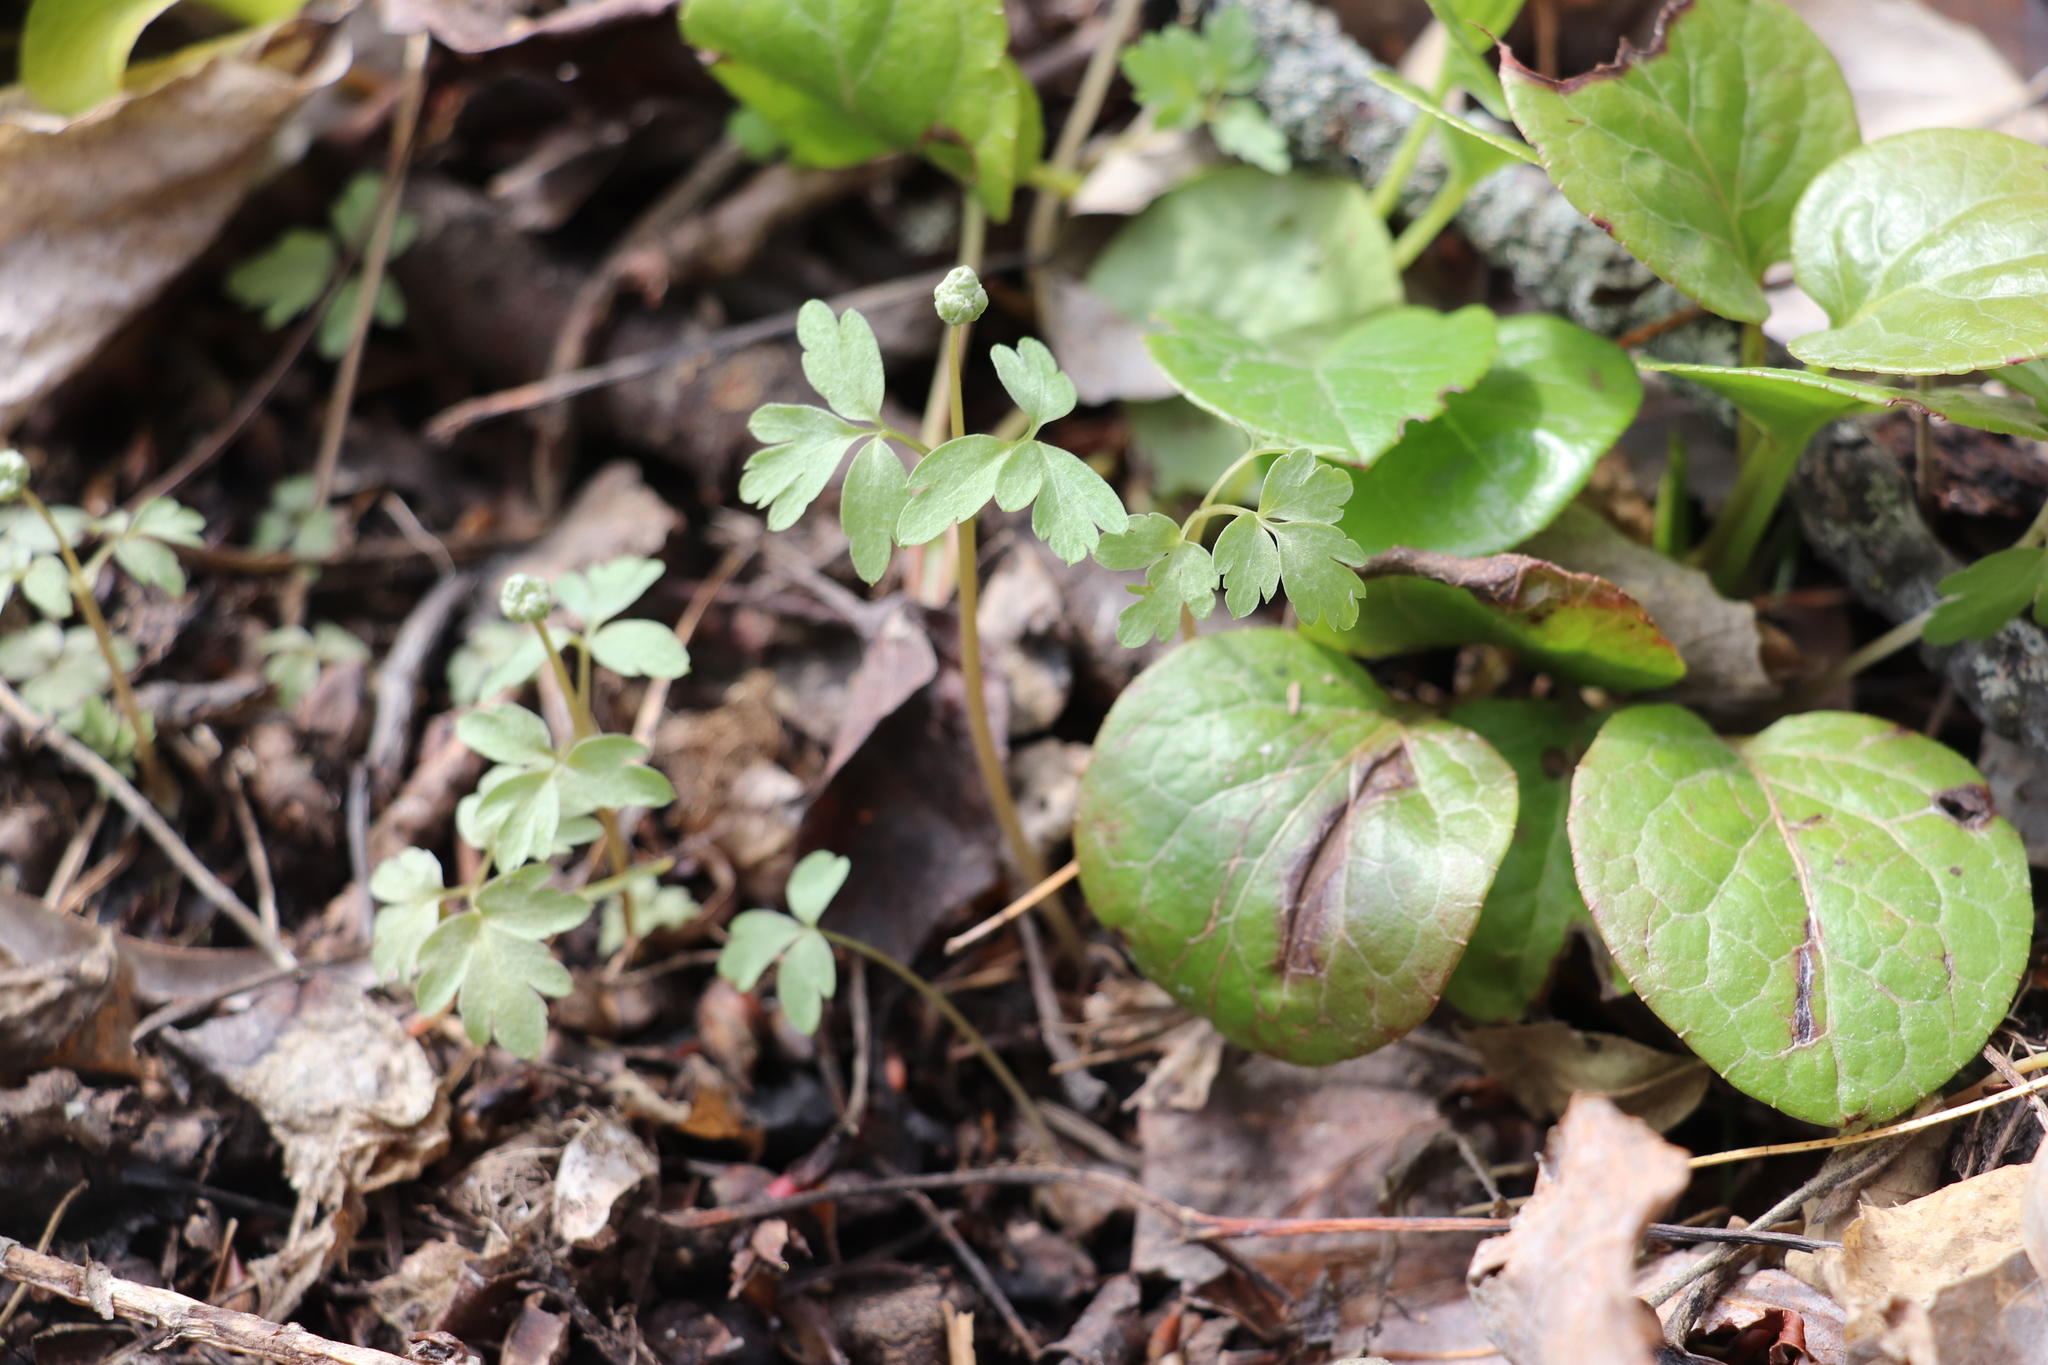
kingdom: Plantae
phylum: Tracheophyta
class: Magnoliopsida
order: Dipsacales
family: Viburnaceae
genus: Adoxa
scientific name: Adoxa moschatellina
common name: Moschatel
